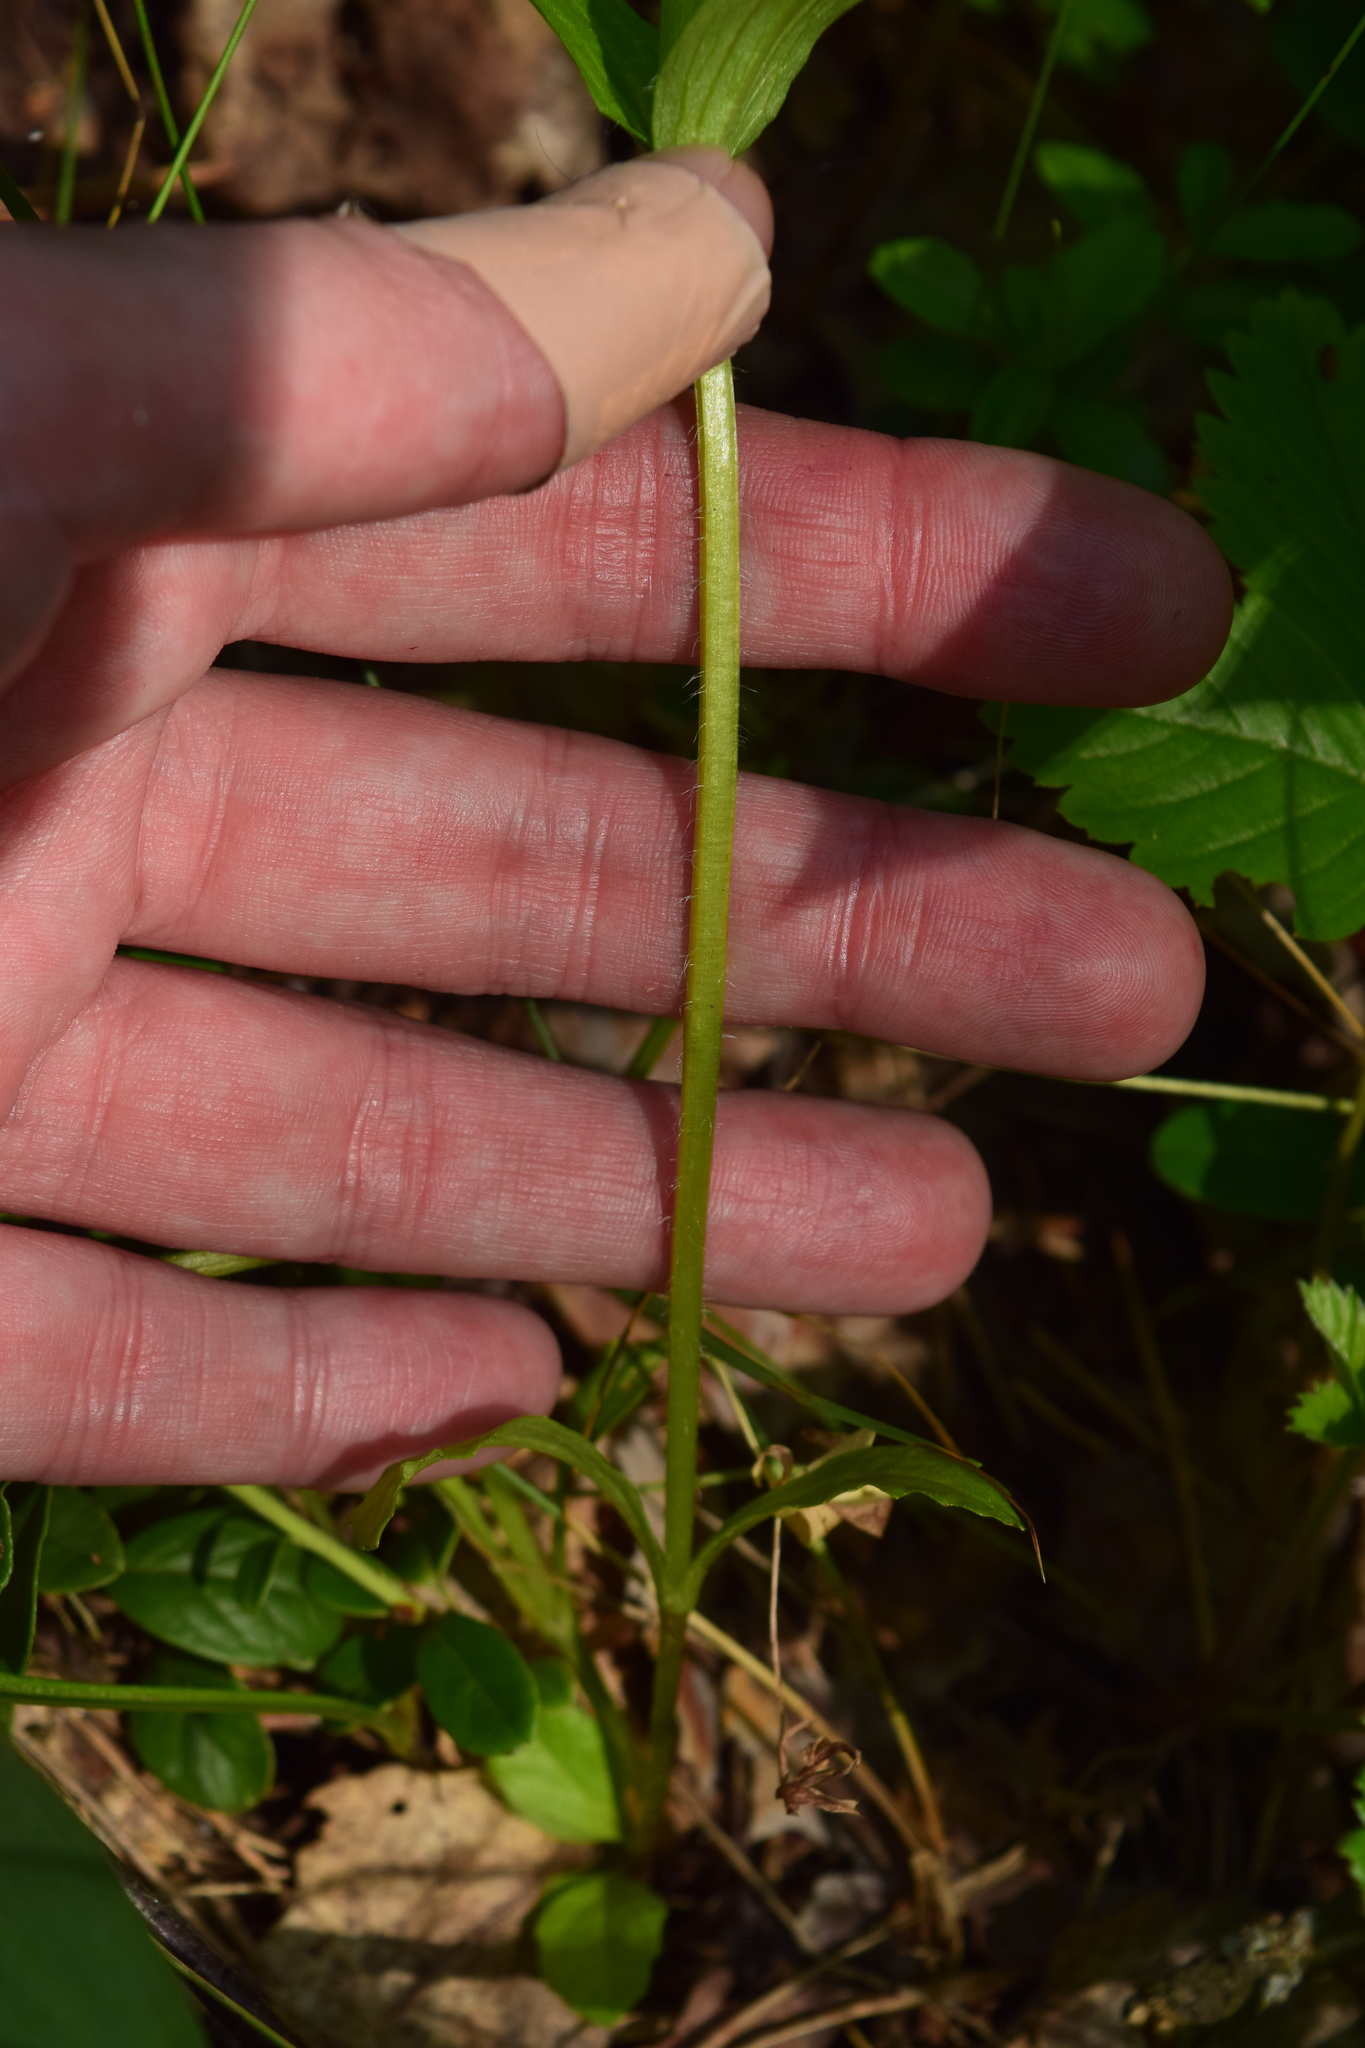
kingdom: Plantae
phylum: Tracheophyta
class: Magnoliopsida
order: Lamiales
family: Lamiaceae
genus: Ajuga
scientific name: Ajuga genevensis
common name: Blue bugle
